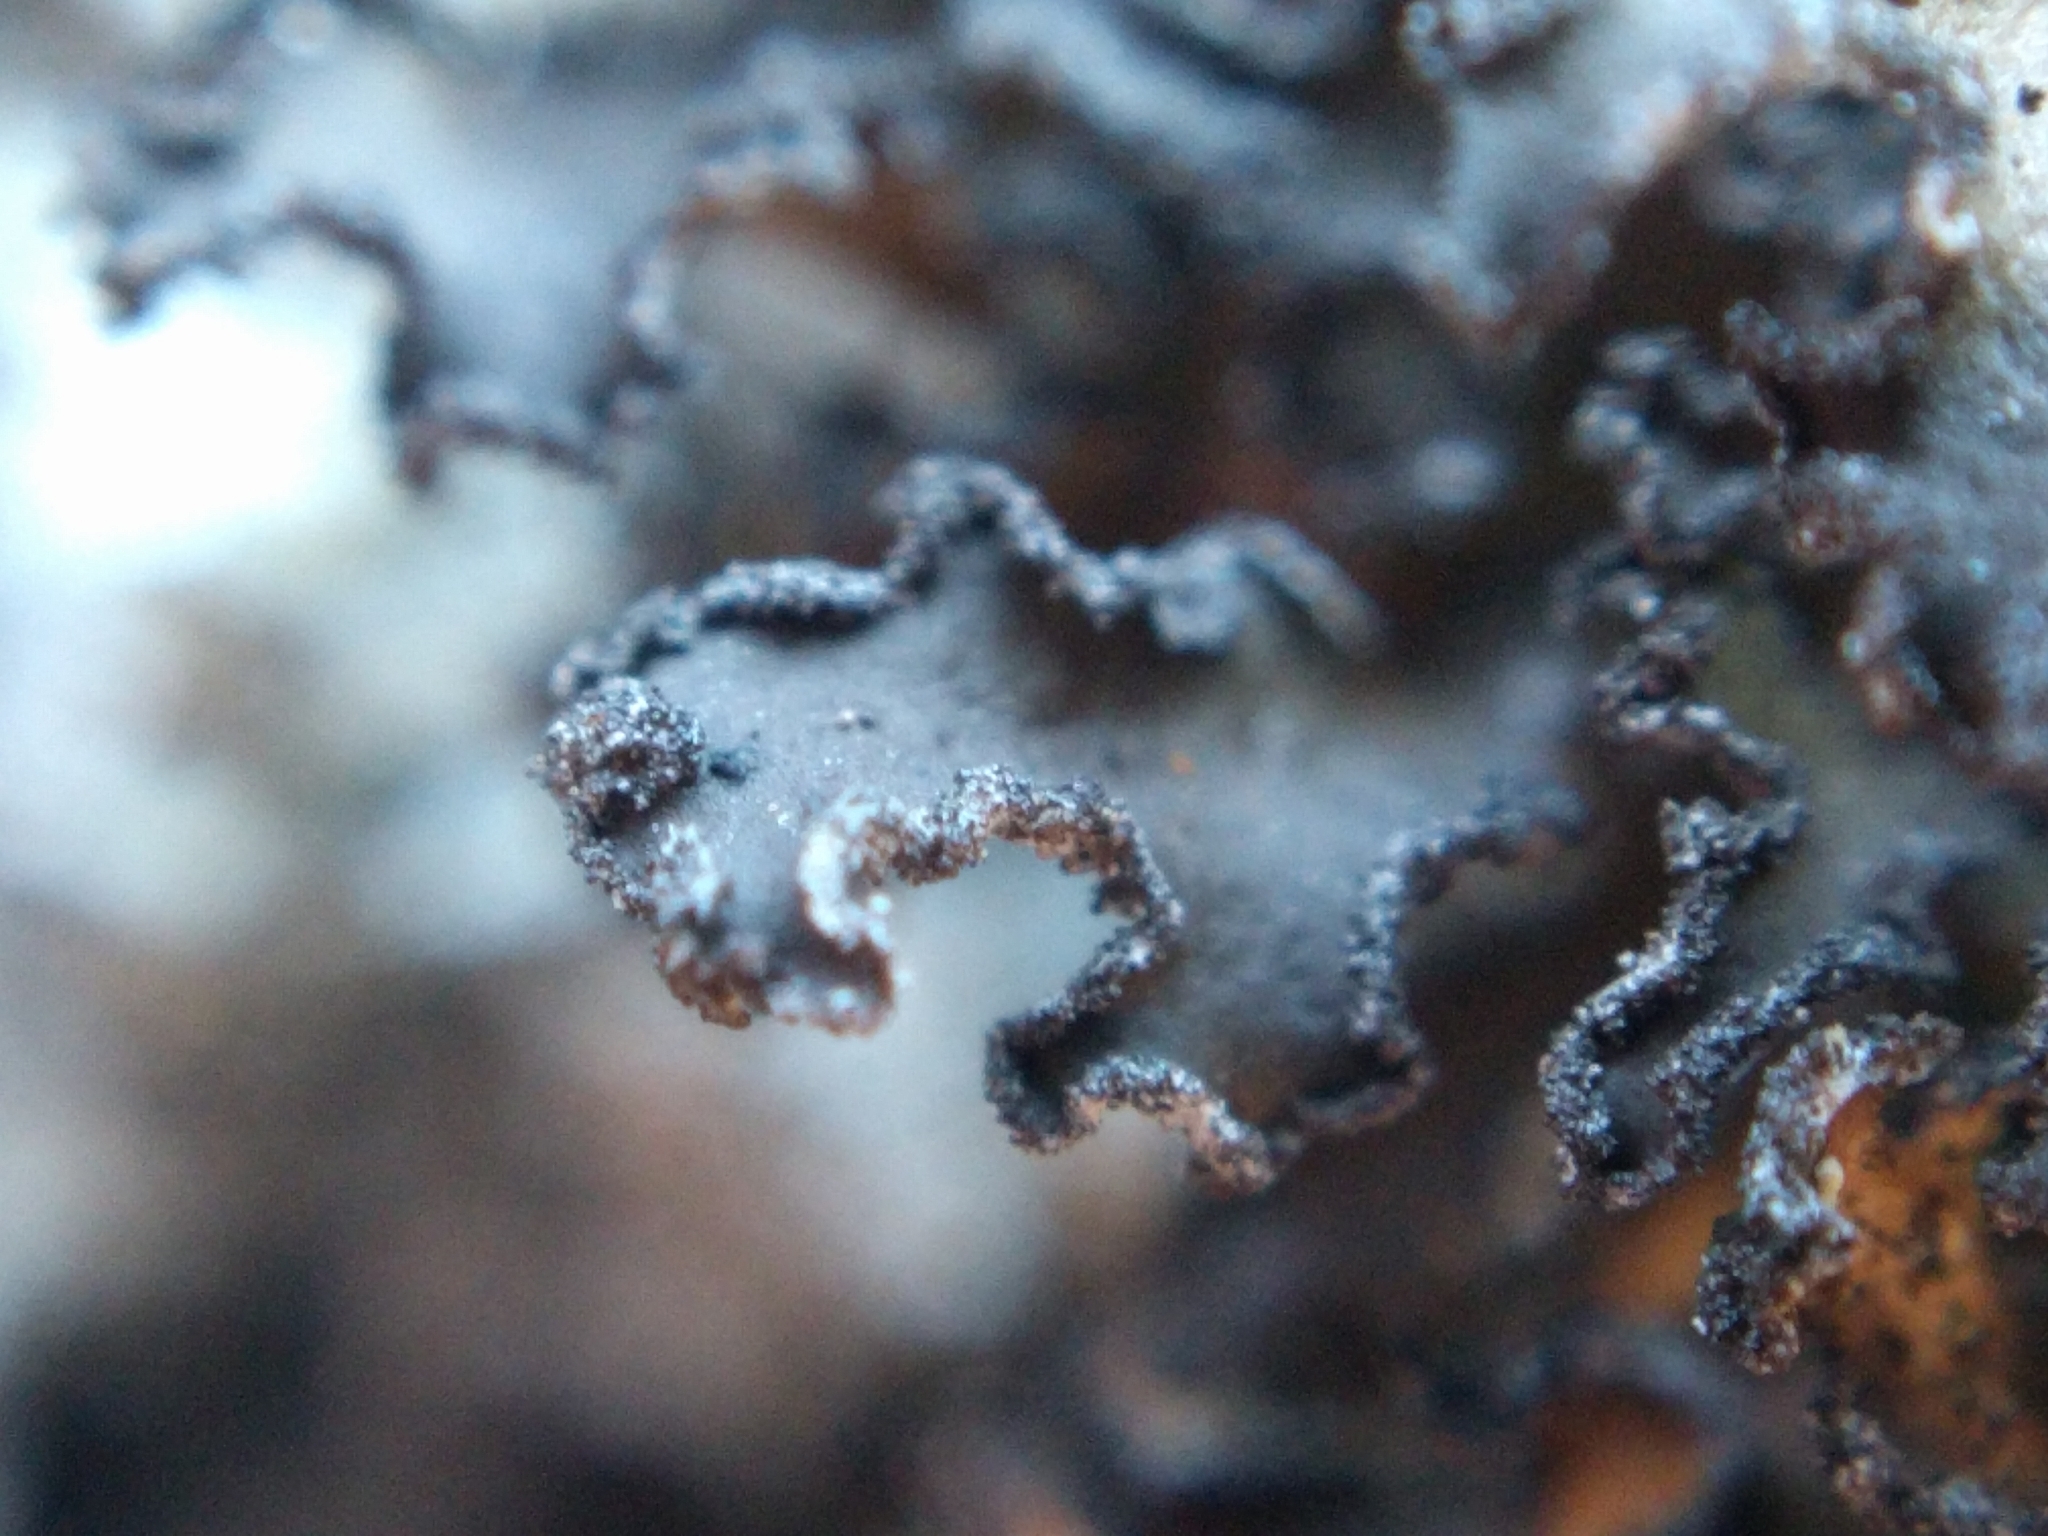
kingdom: Fungi
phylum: Ascomycota
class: Lecanoromycetes
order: Lecanorales
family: Parmeliaceae
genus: Nephromopsis
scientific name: Nephromopsis chlorophylla
